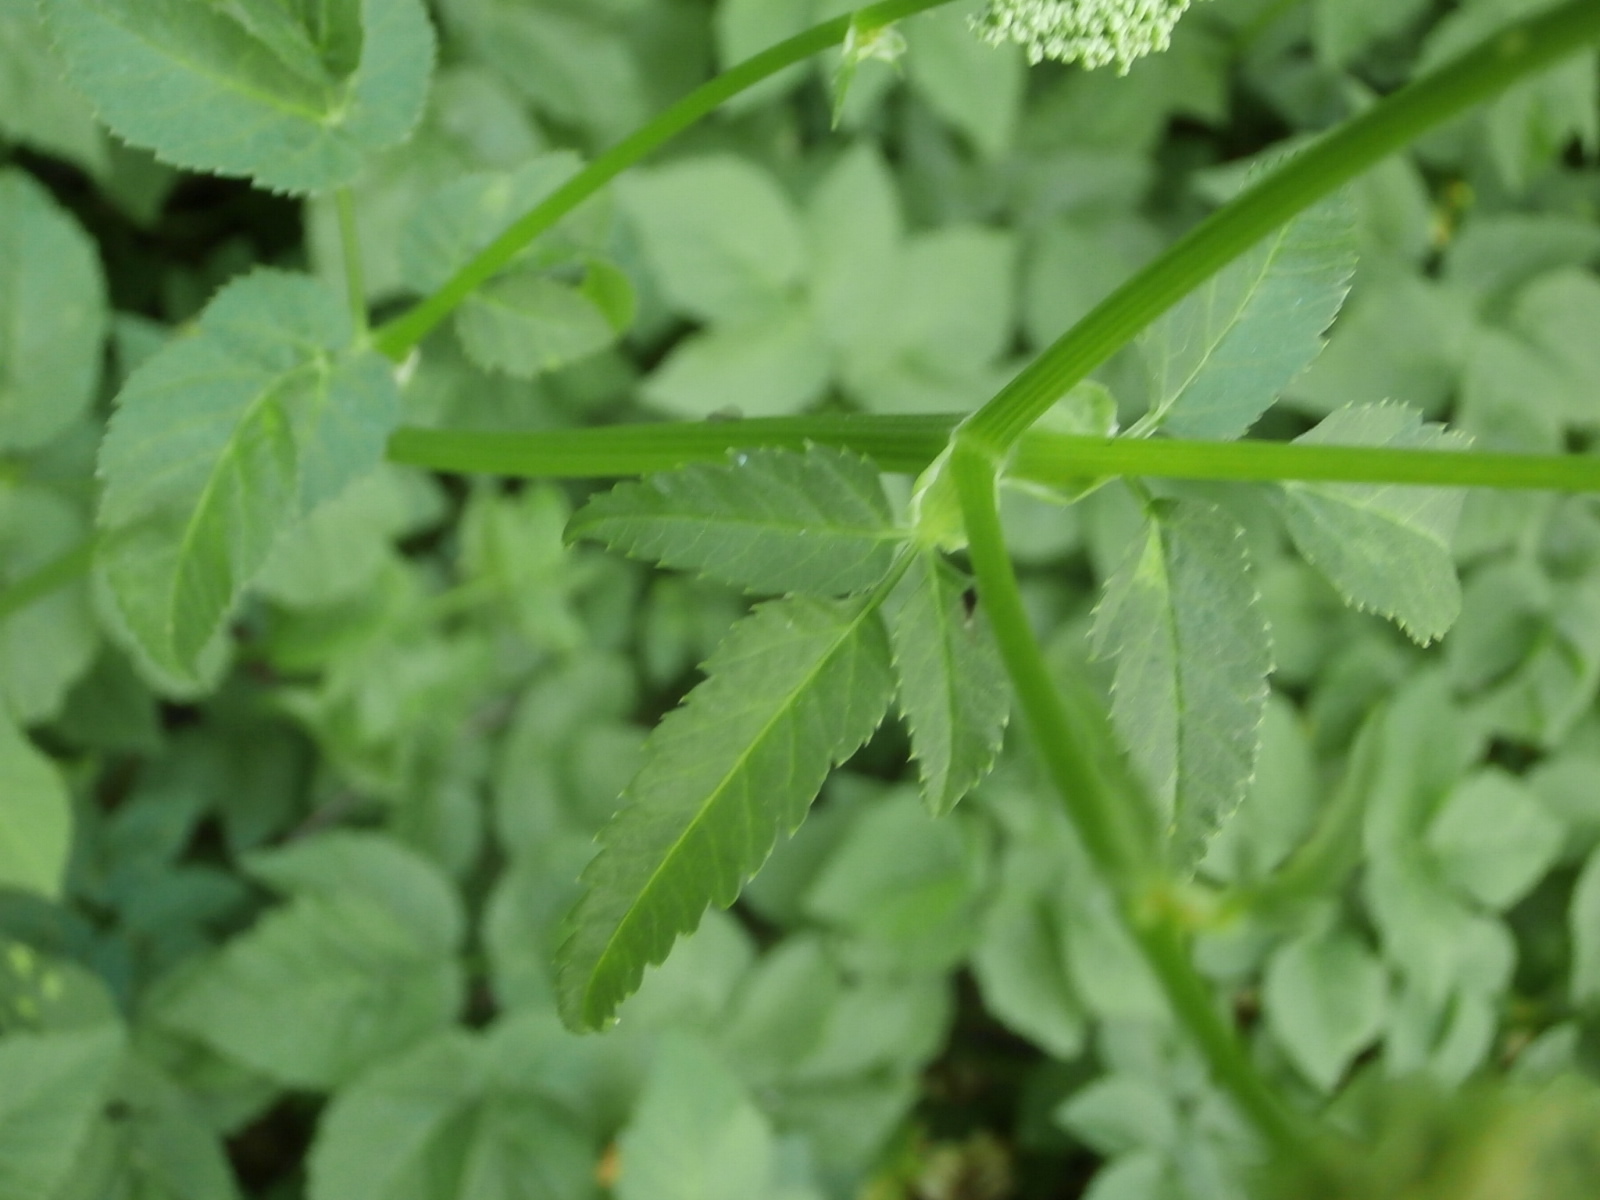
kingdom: Plantae
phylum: Tracheophyta
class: Magnoliopsida
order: Apiales
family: Apiaceae
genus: Aegopodium
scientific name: Aegopodium podagraria
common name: Ground-elder
